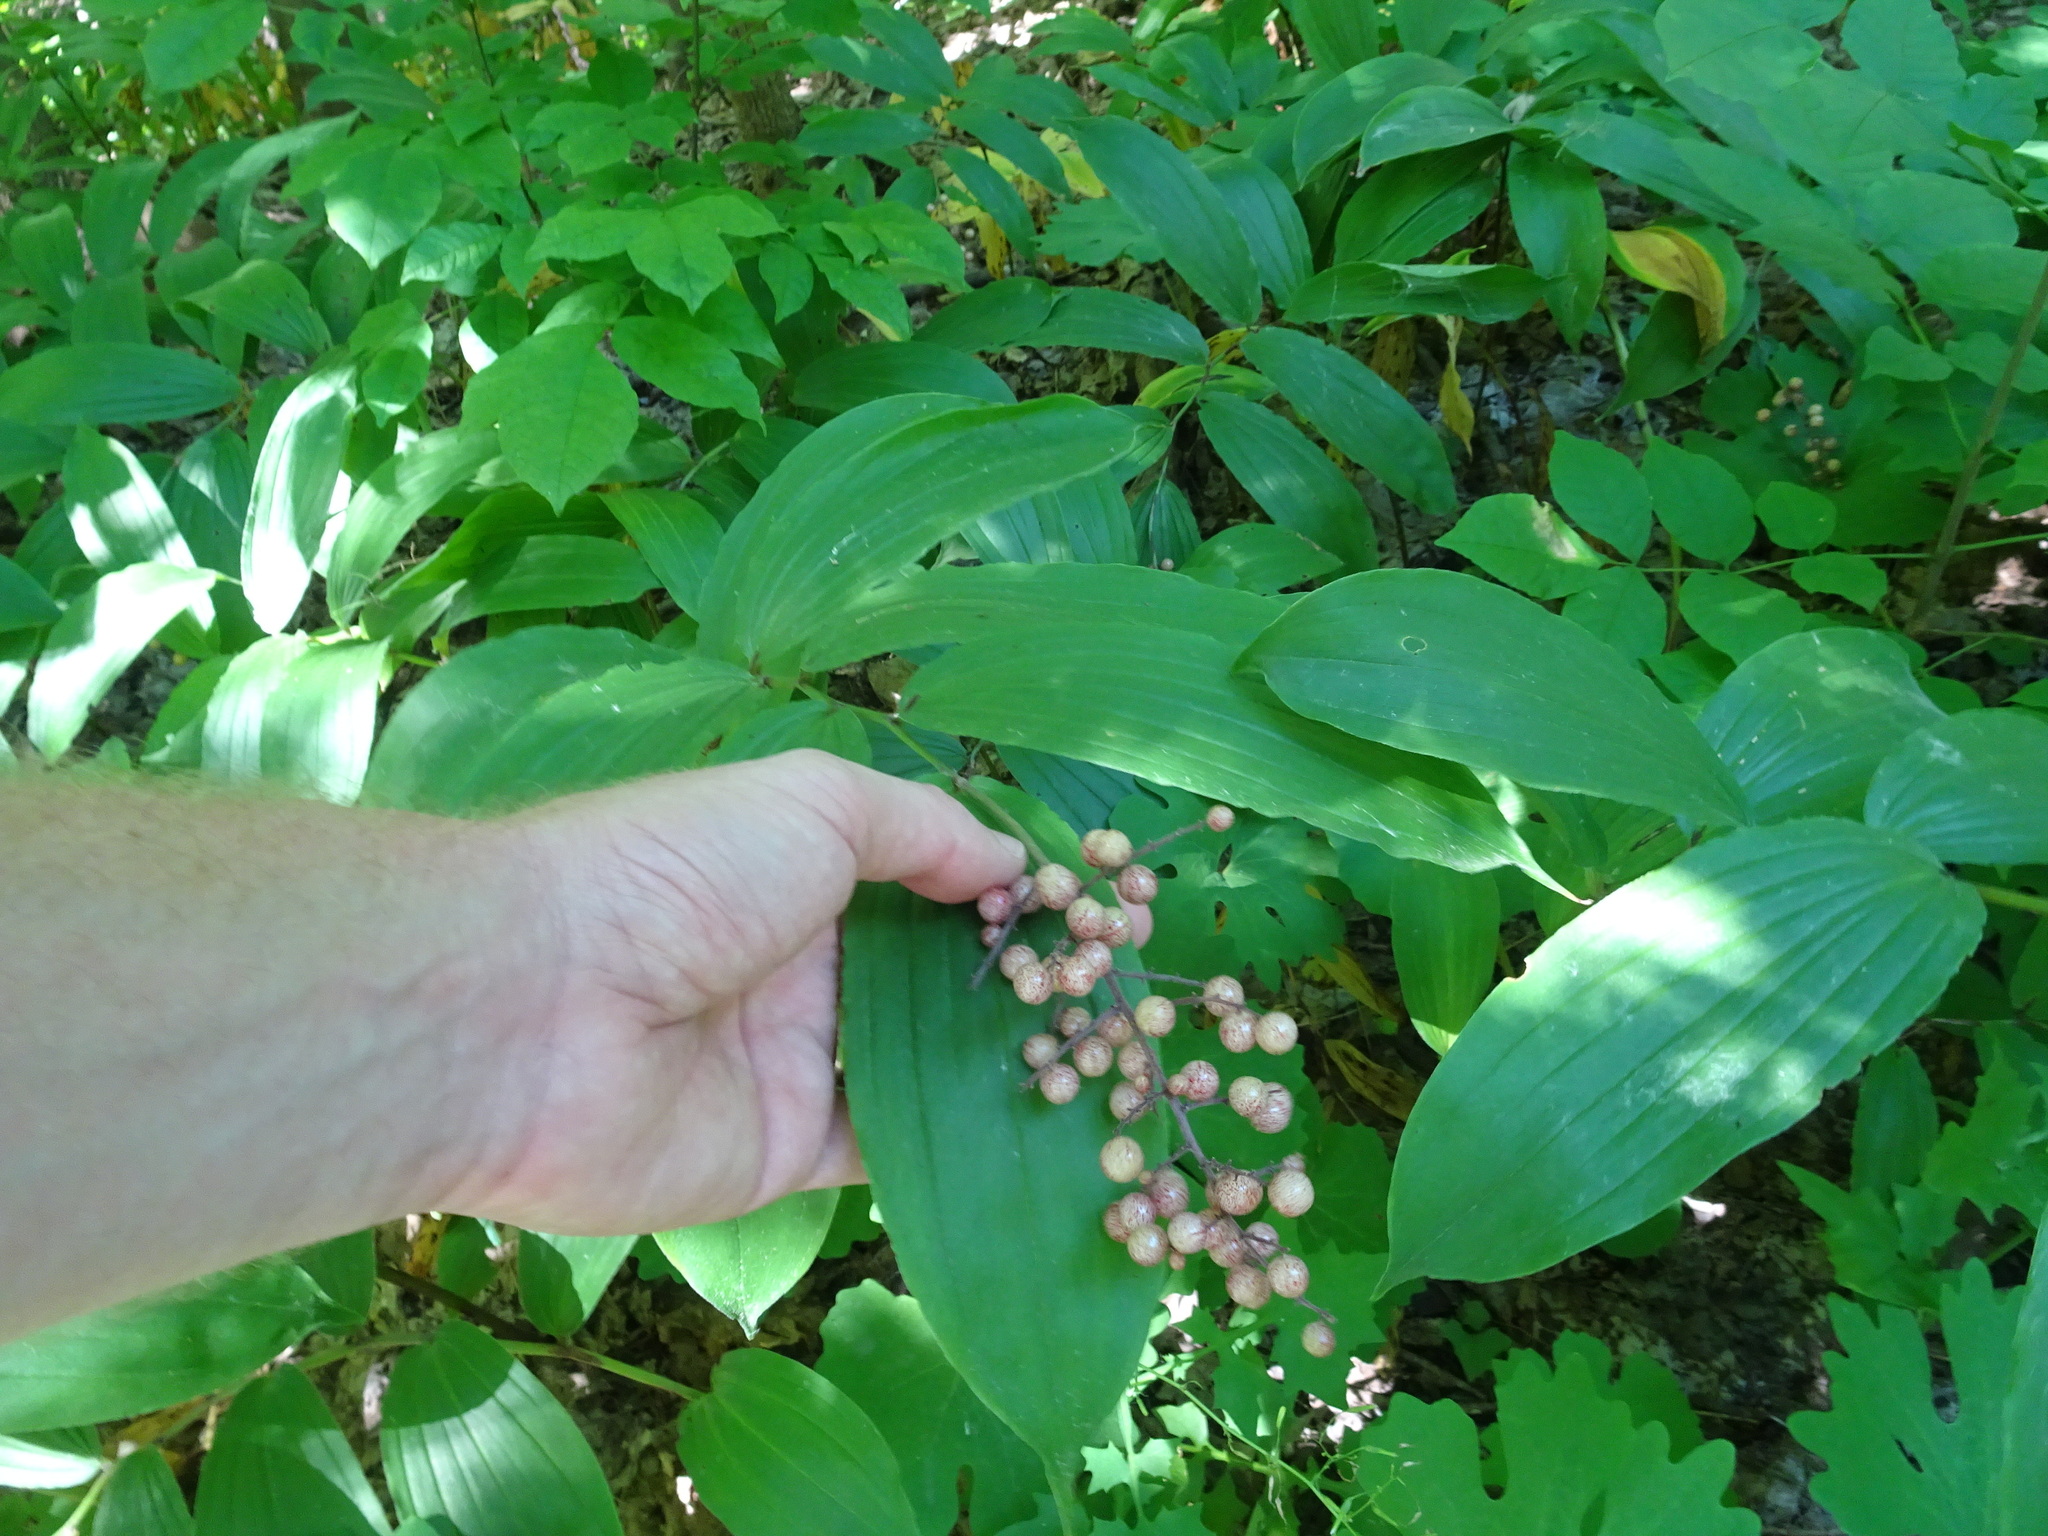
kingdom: Plantae
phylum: Tracheophyta
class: Liliopsida
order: Asparagales
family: Asparagaceae
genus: Maianthemum
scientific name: Maianthemum racemosum
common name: False spikenard
